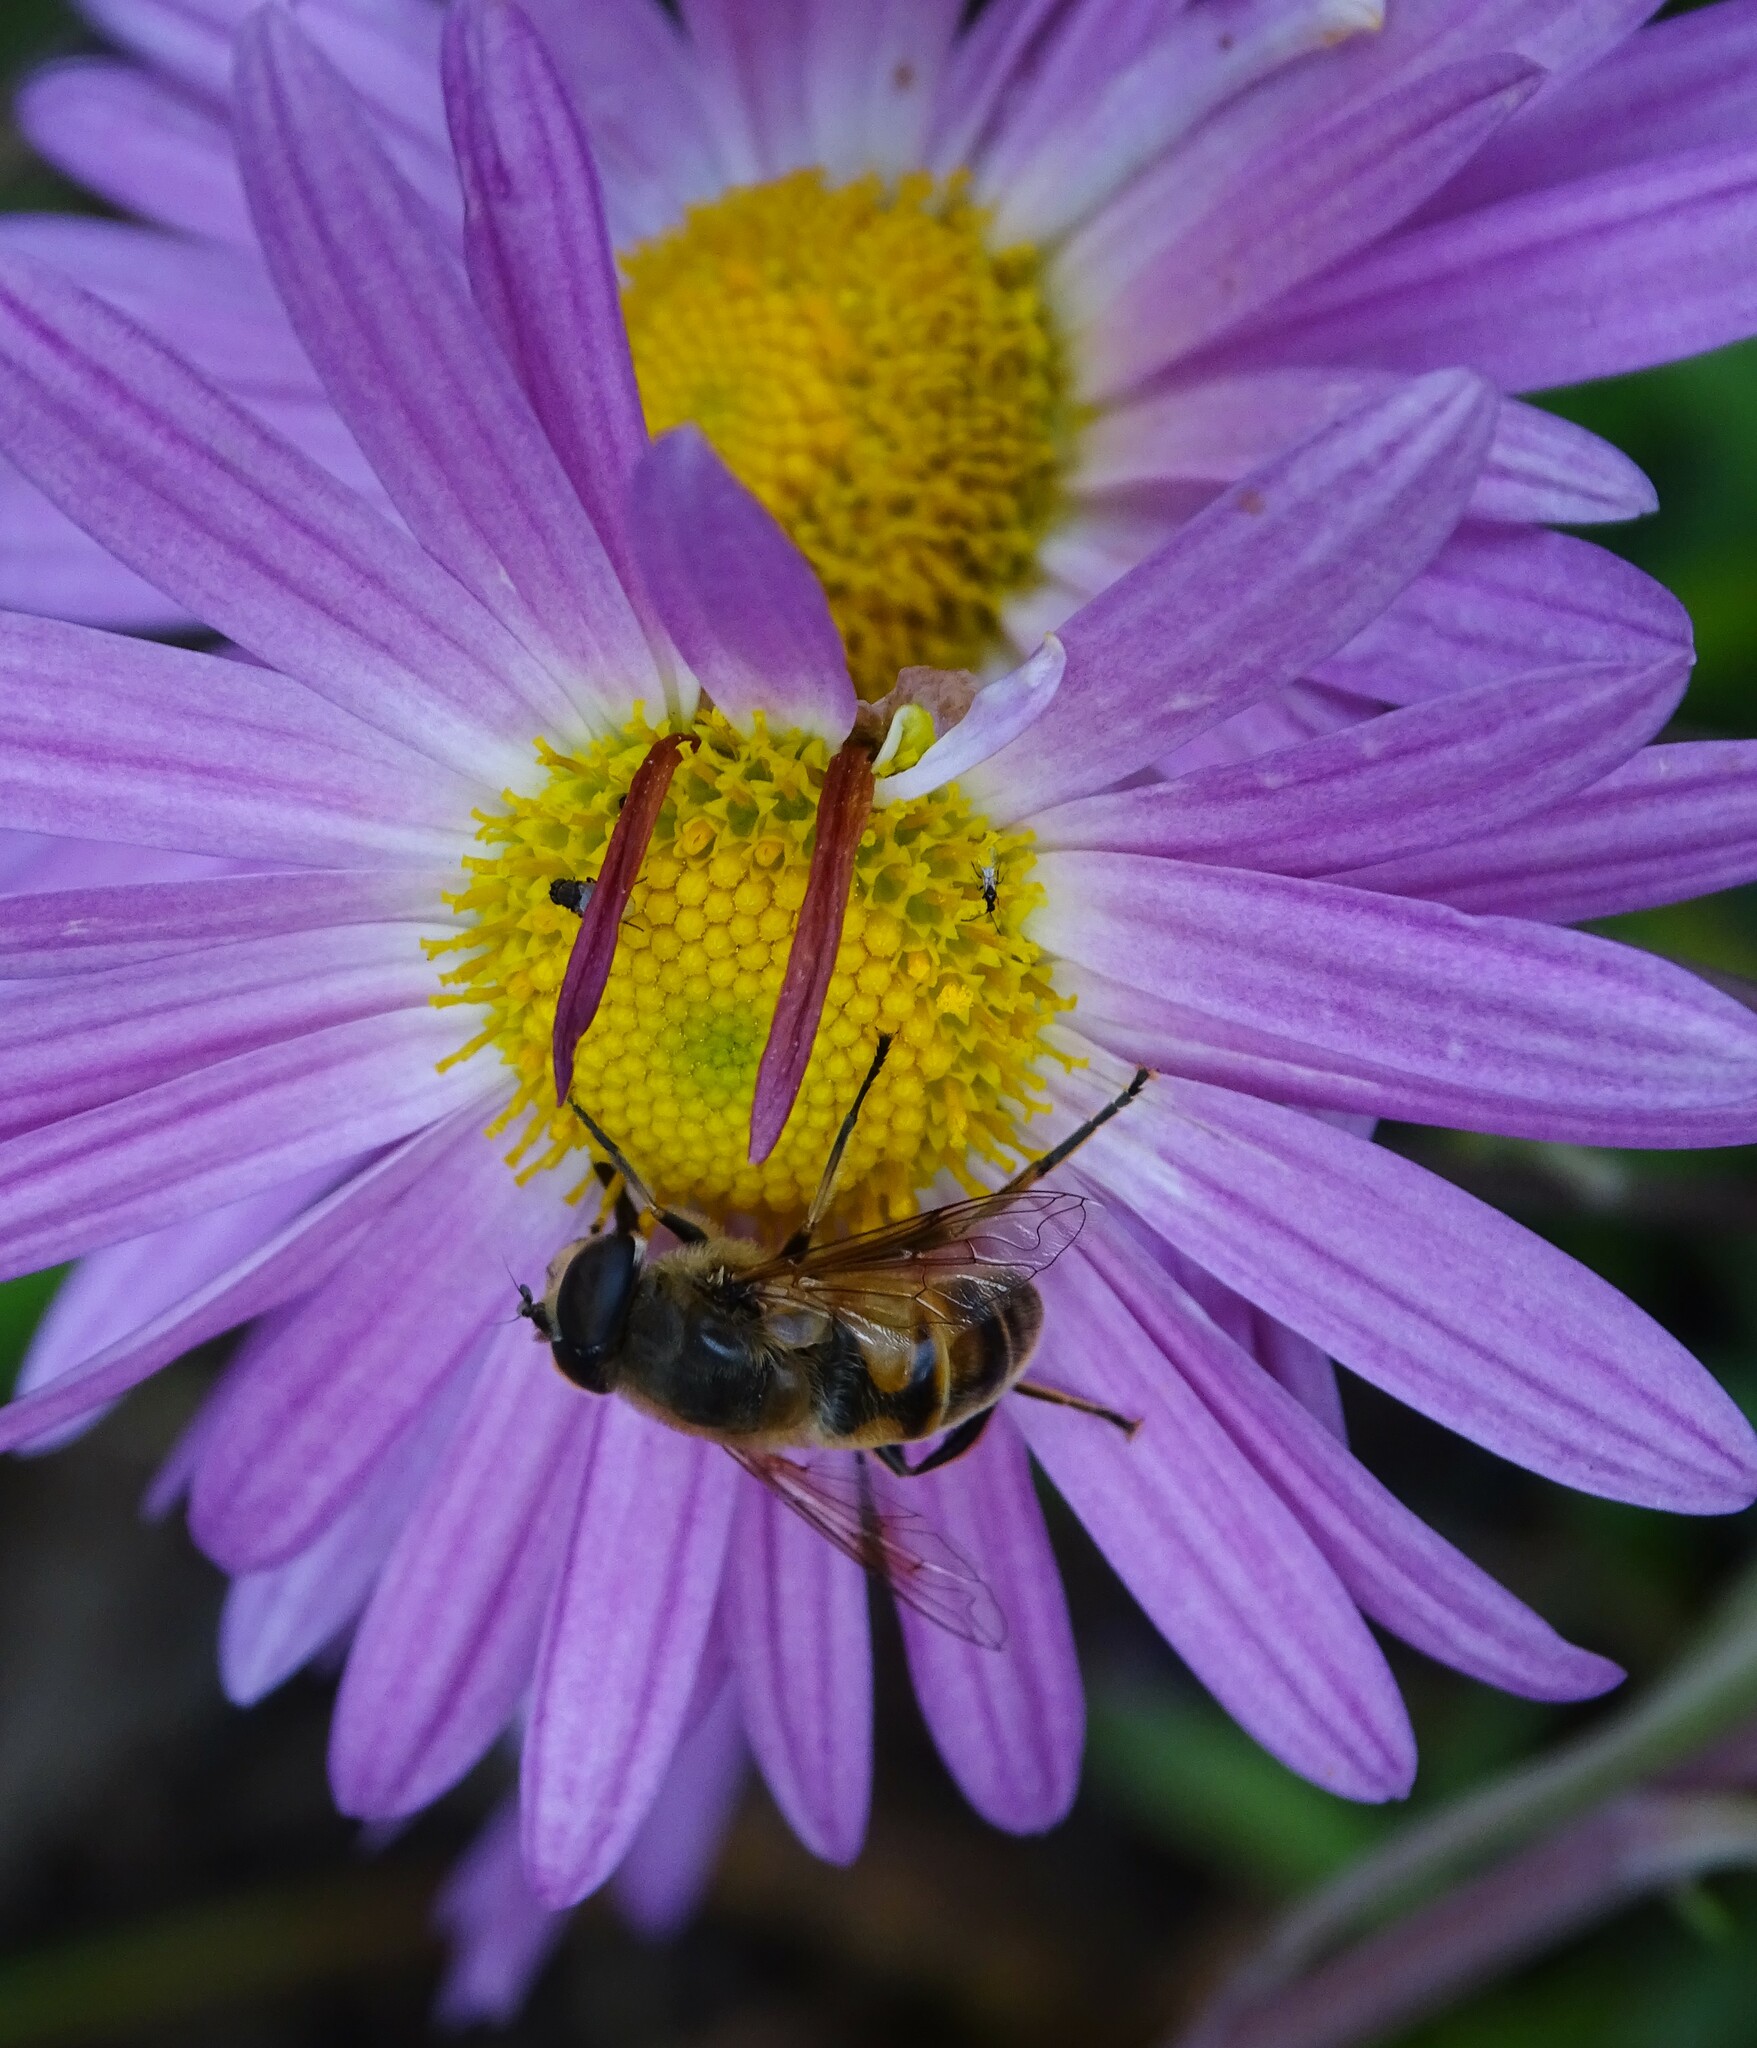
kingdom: Animalia
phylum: Arthropoda
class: Insecta
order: Diptera
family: Syrphidae
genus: Eristalis
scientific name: Eristalis tenax
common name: Drone fly
